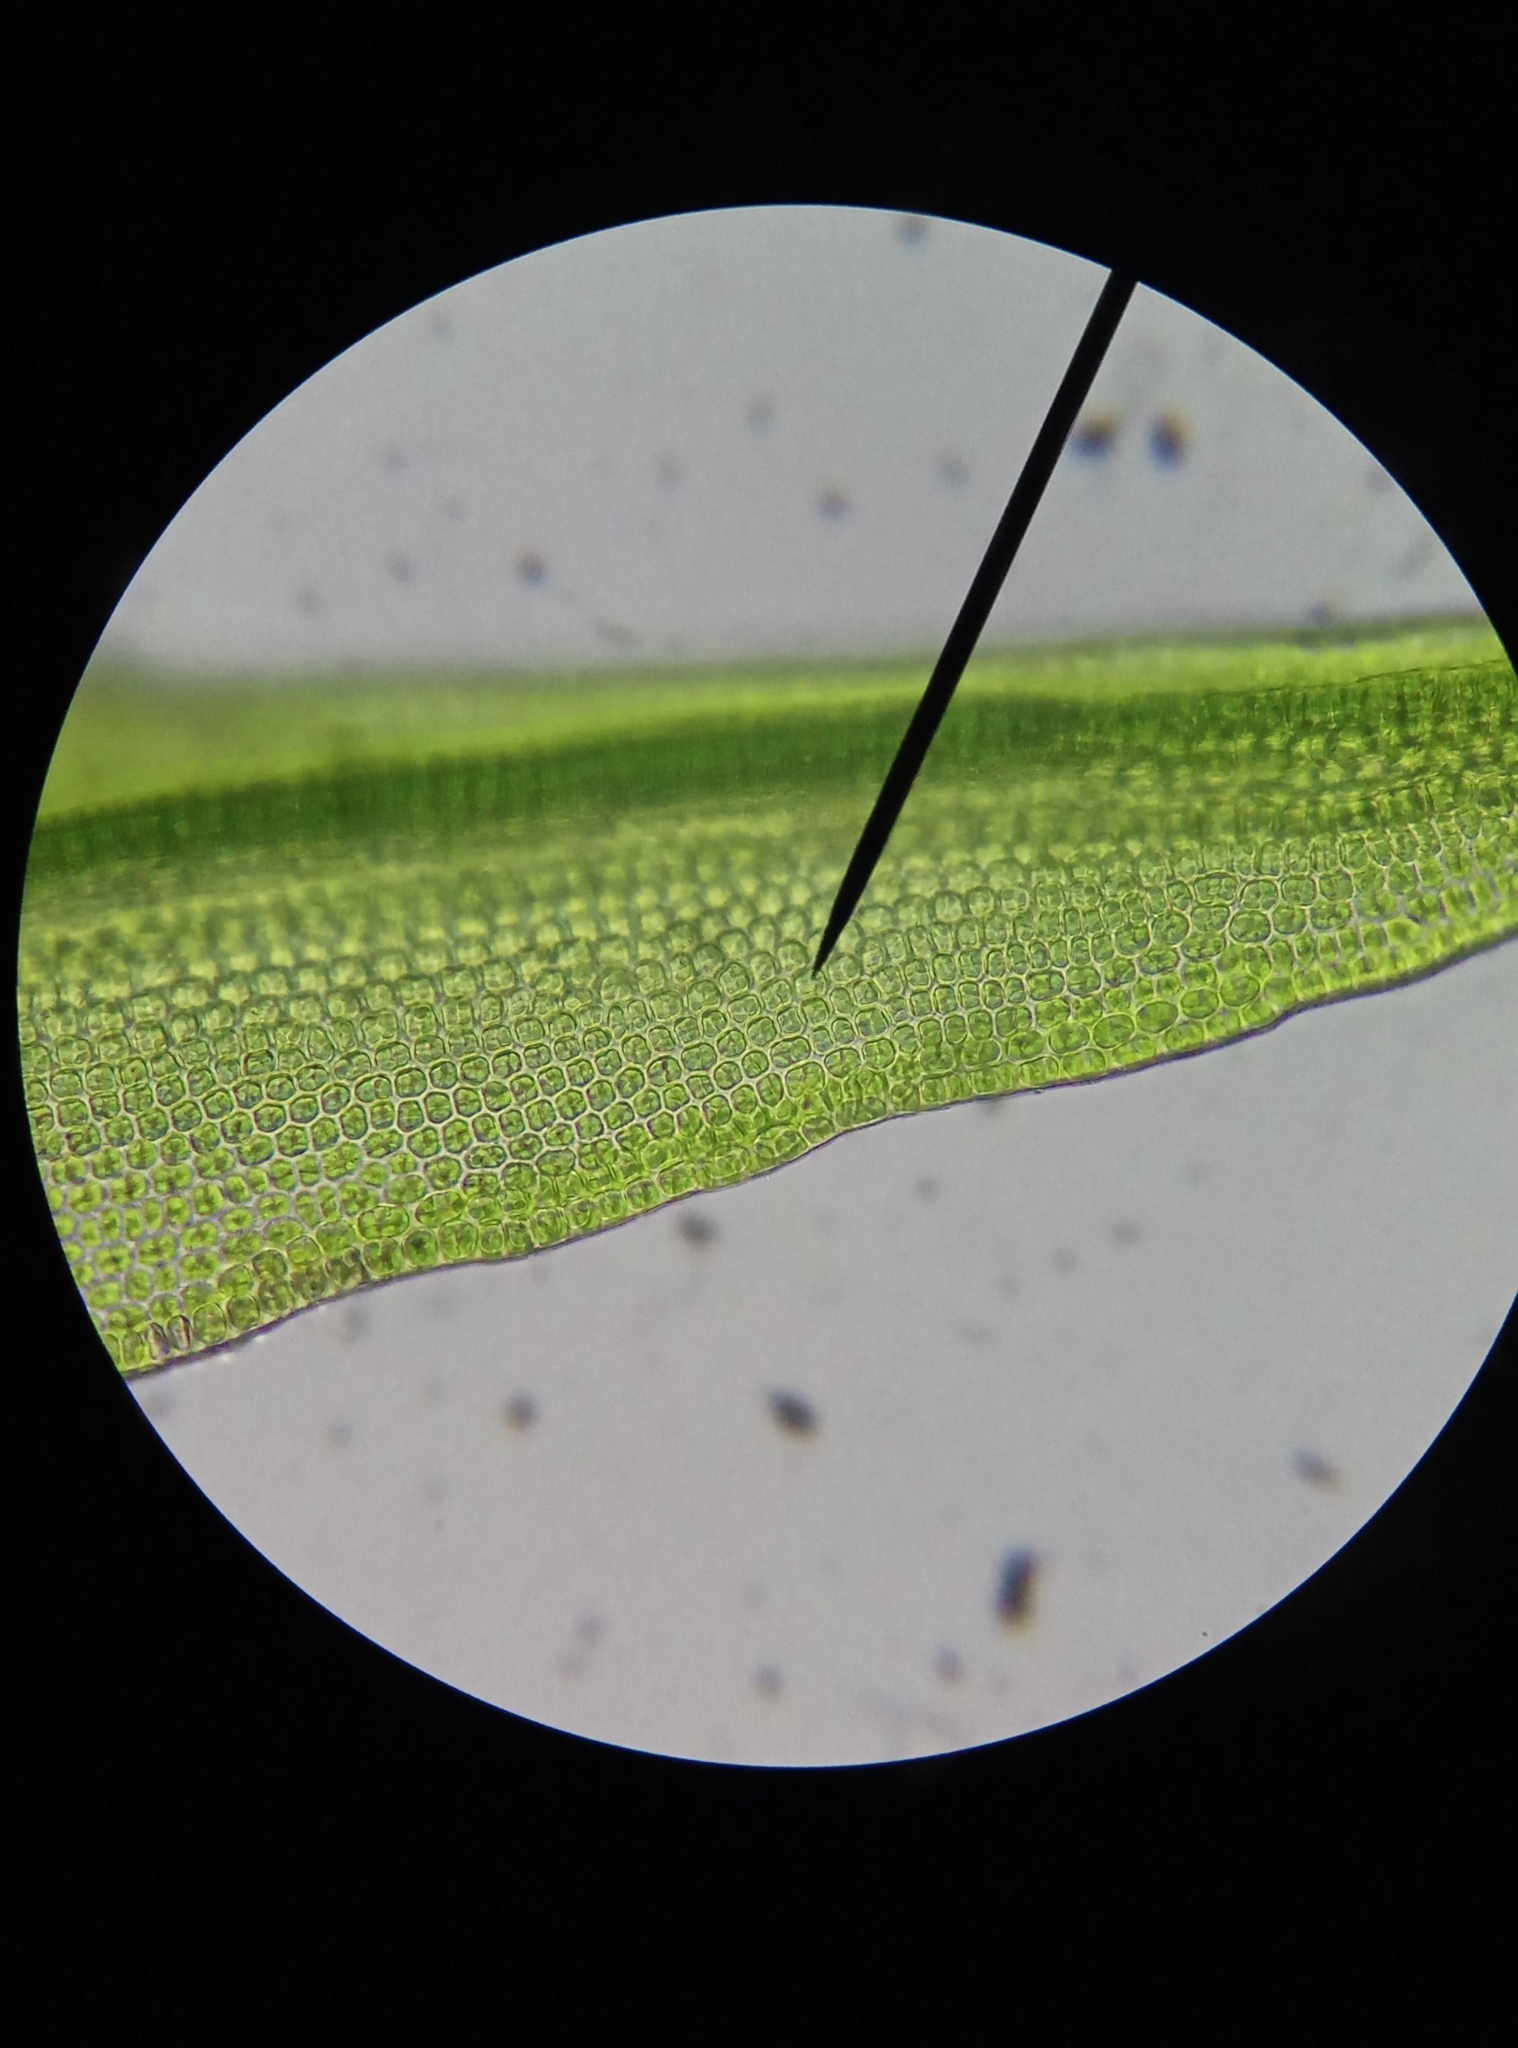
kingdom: Plantae
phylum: Bryophyta
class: Bryopsida
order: Grimmiales
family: Grimmiaceae
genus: Grimmia
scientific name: Grimmia pulvinata
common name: Grey-cushioned grimmia
